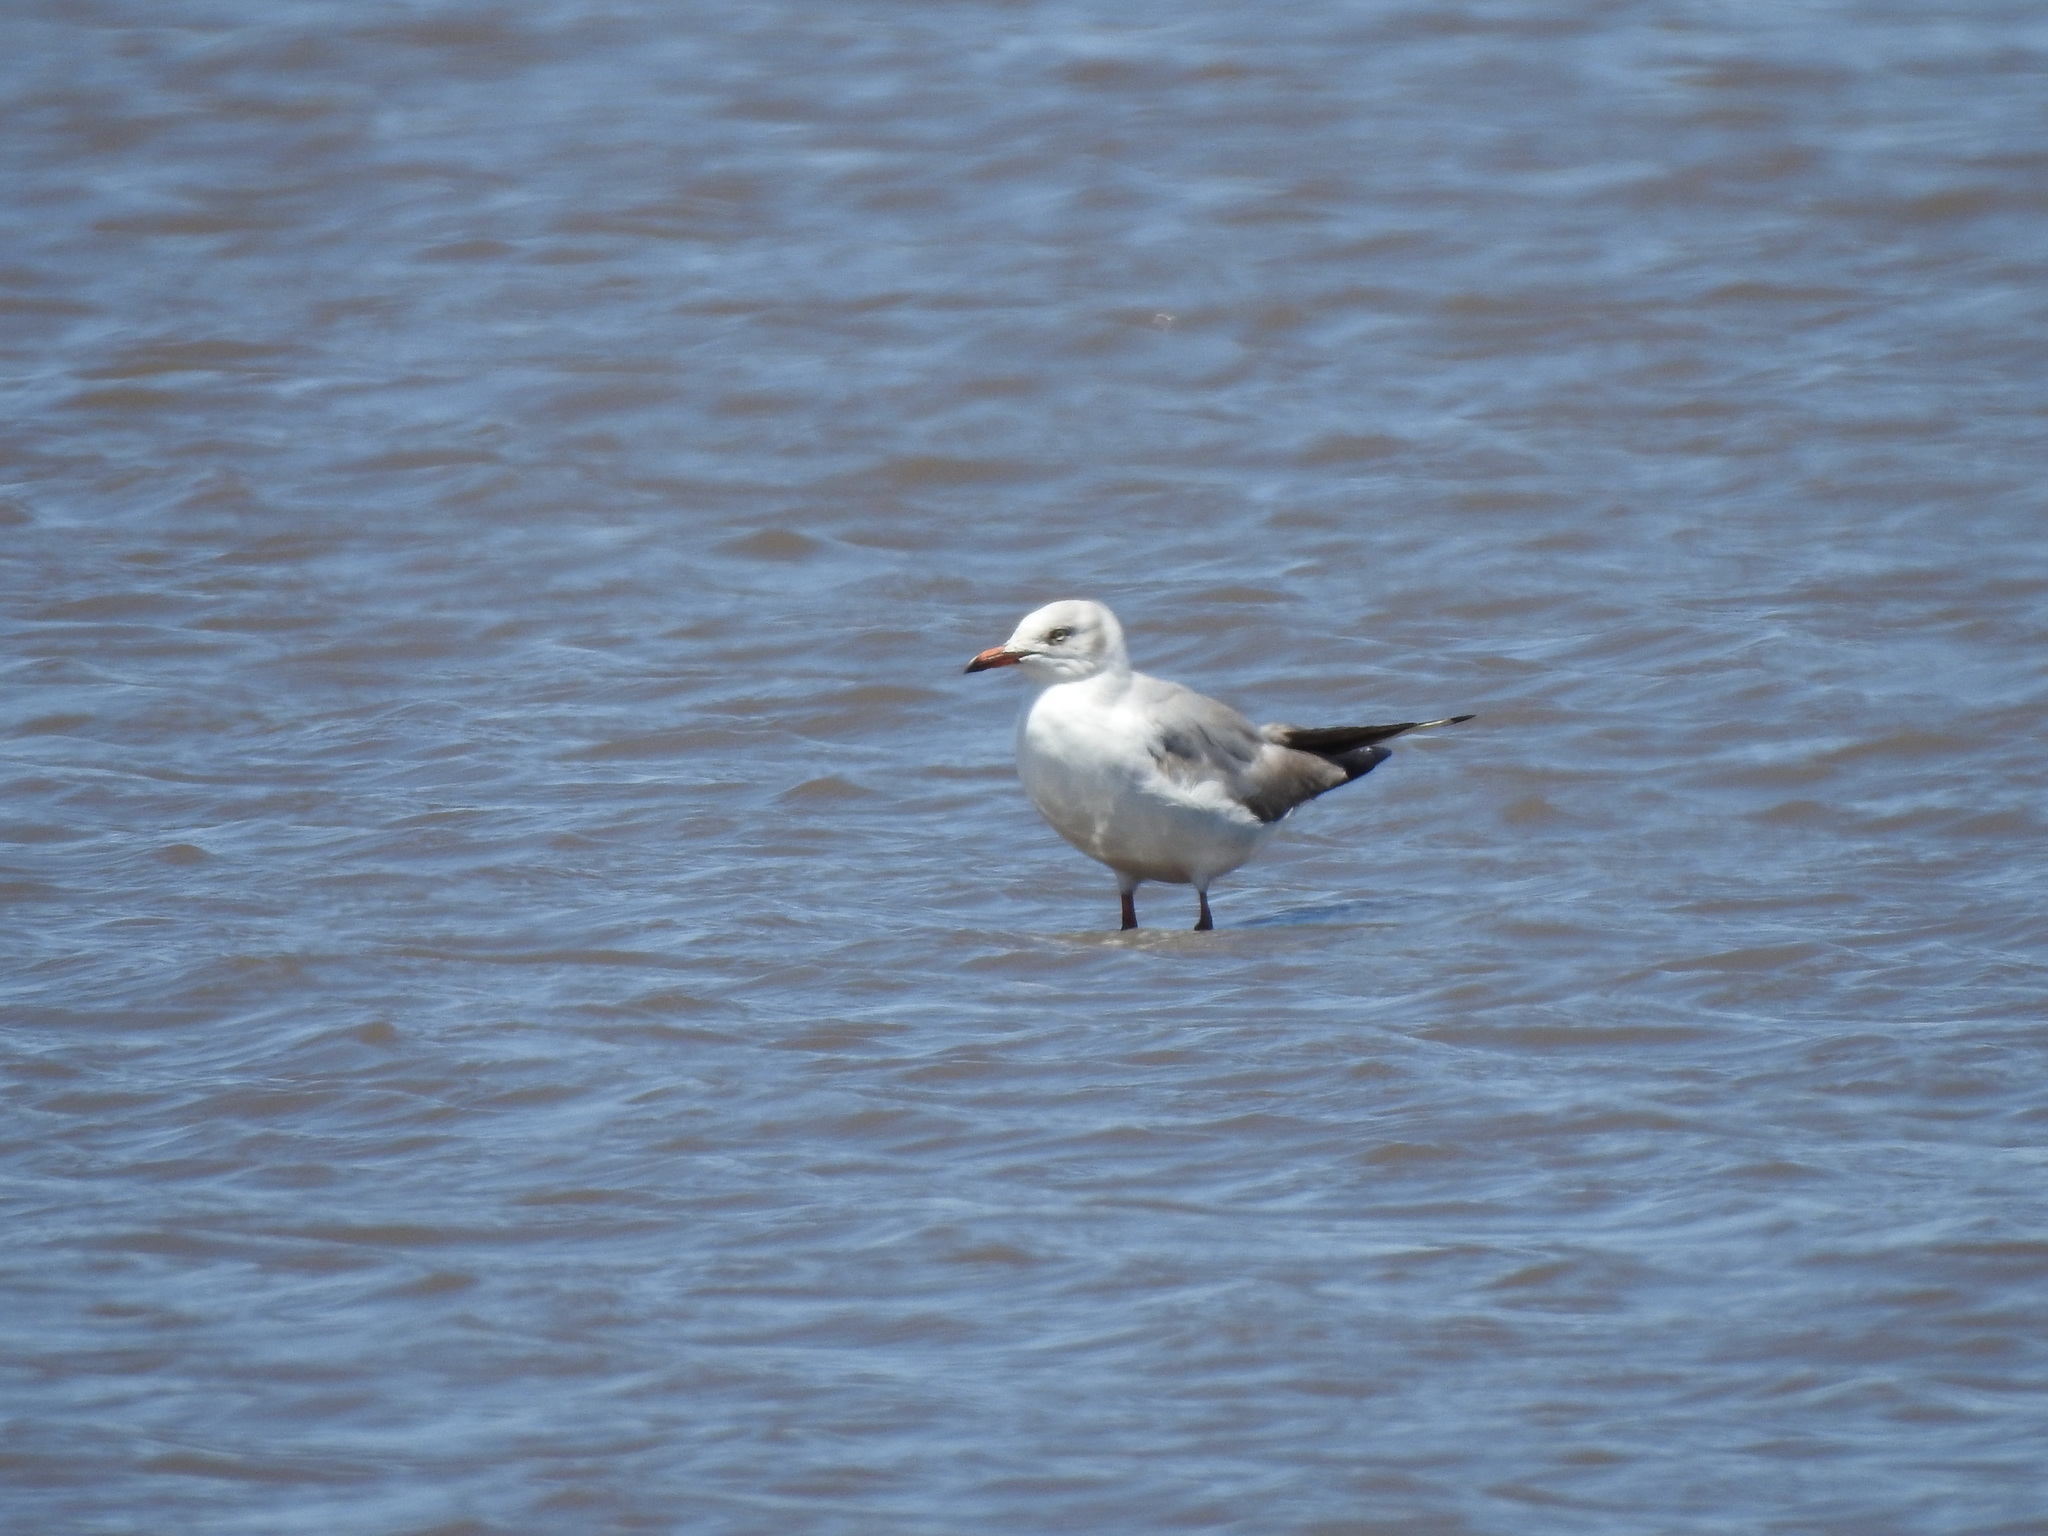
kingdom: Animalia
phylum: Chordata
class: Aves
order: Charadriiformes
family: Laridae
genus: Chroicocephalus
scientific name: Chroicocephalus cirrocephalus
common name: Grey-headed gull
